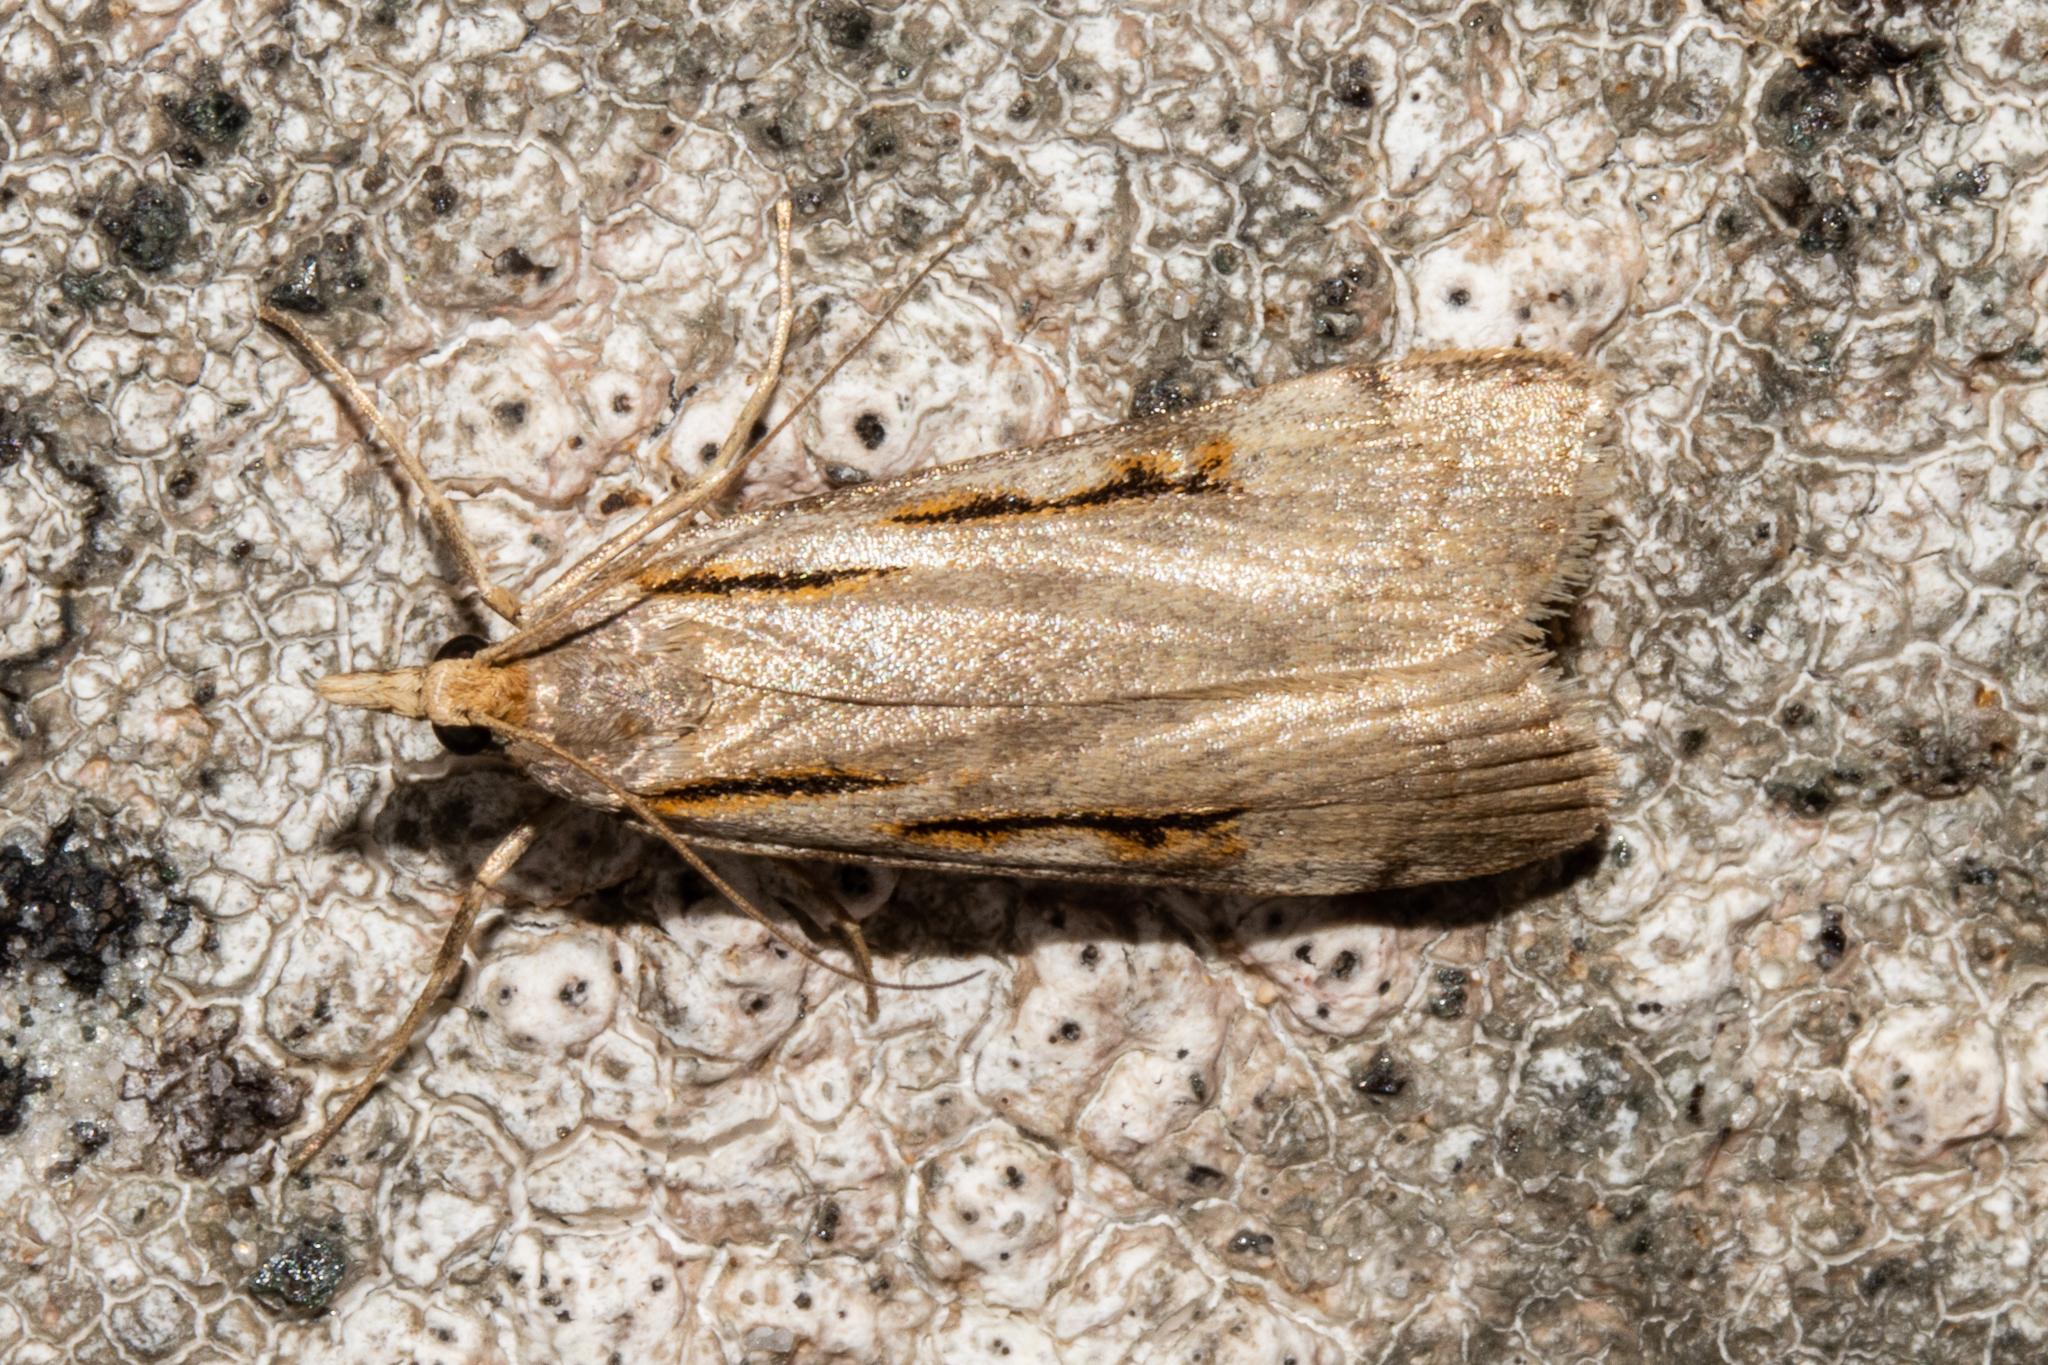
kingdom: Animalia
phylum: Arthropoda
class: Insecta
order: Lepidoptera
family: Crambidae
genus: Scoparia
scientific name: Scoparia rotuellus
